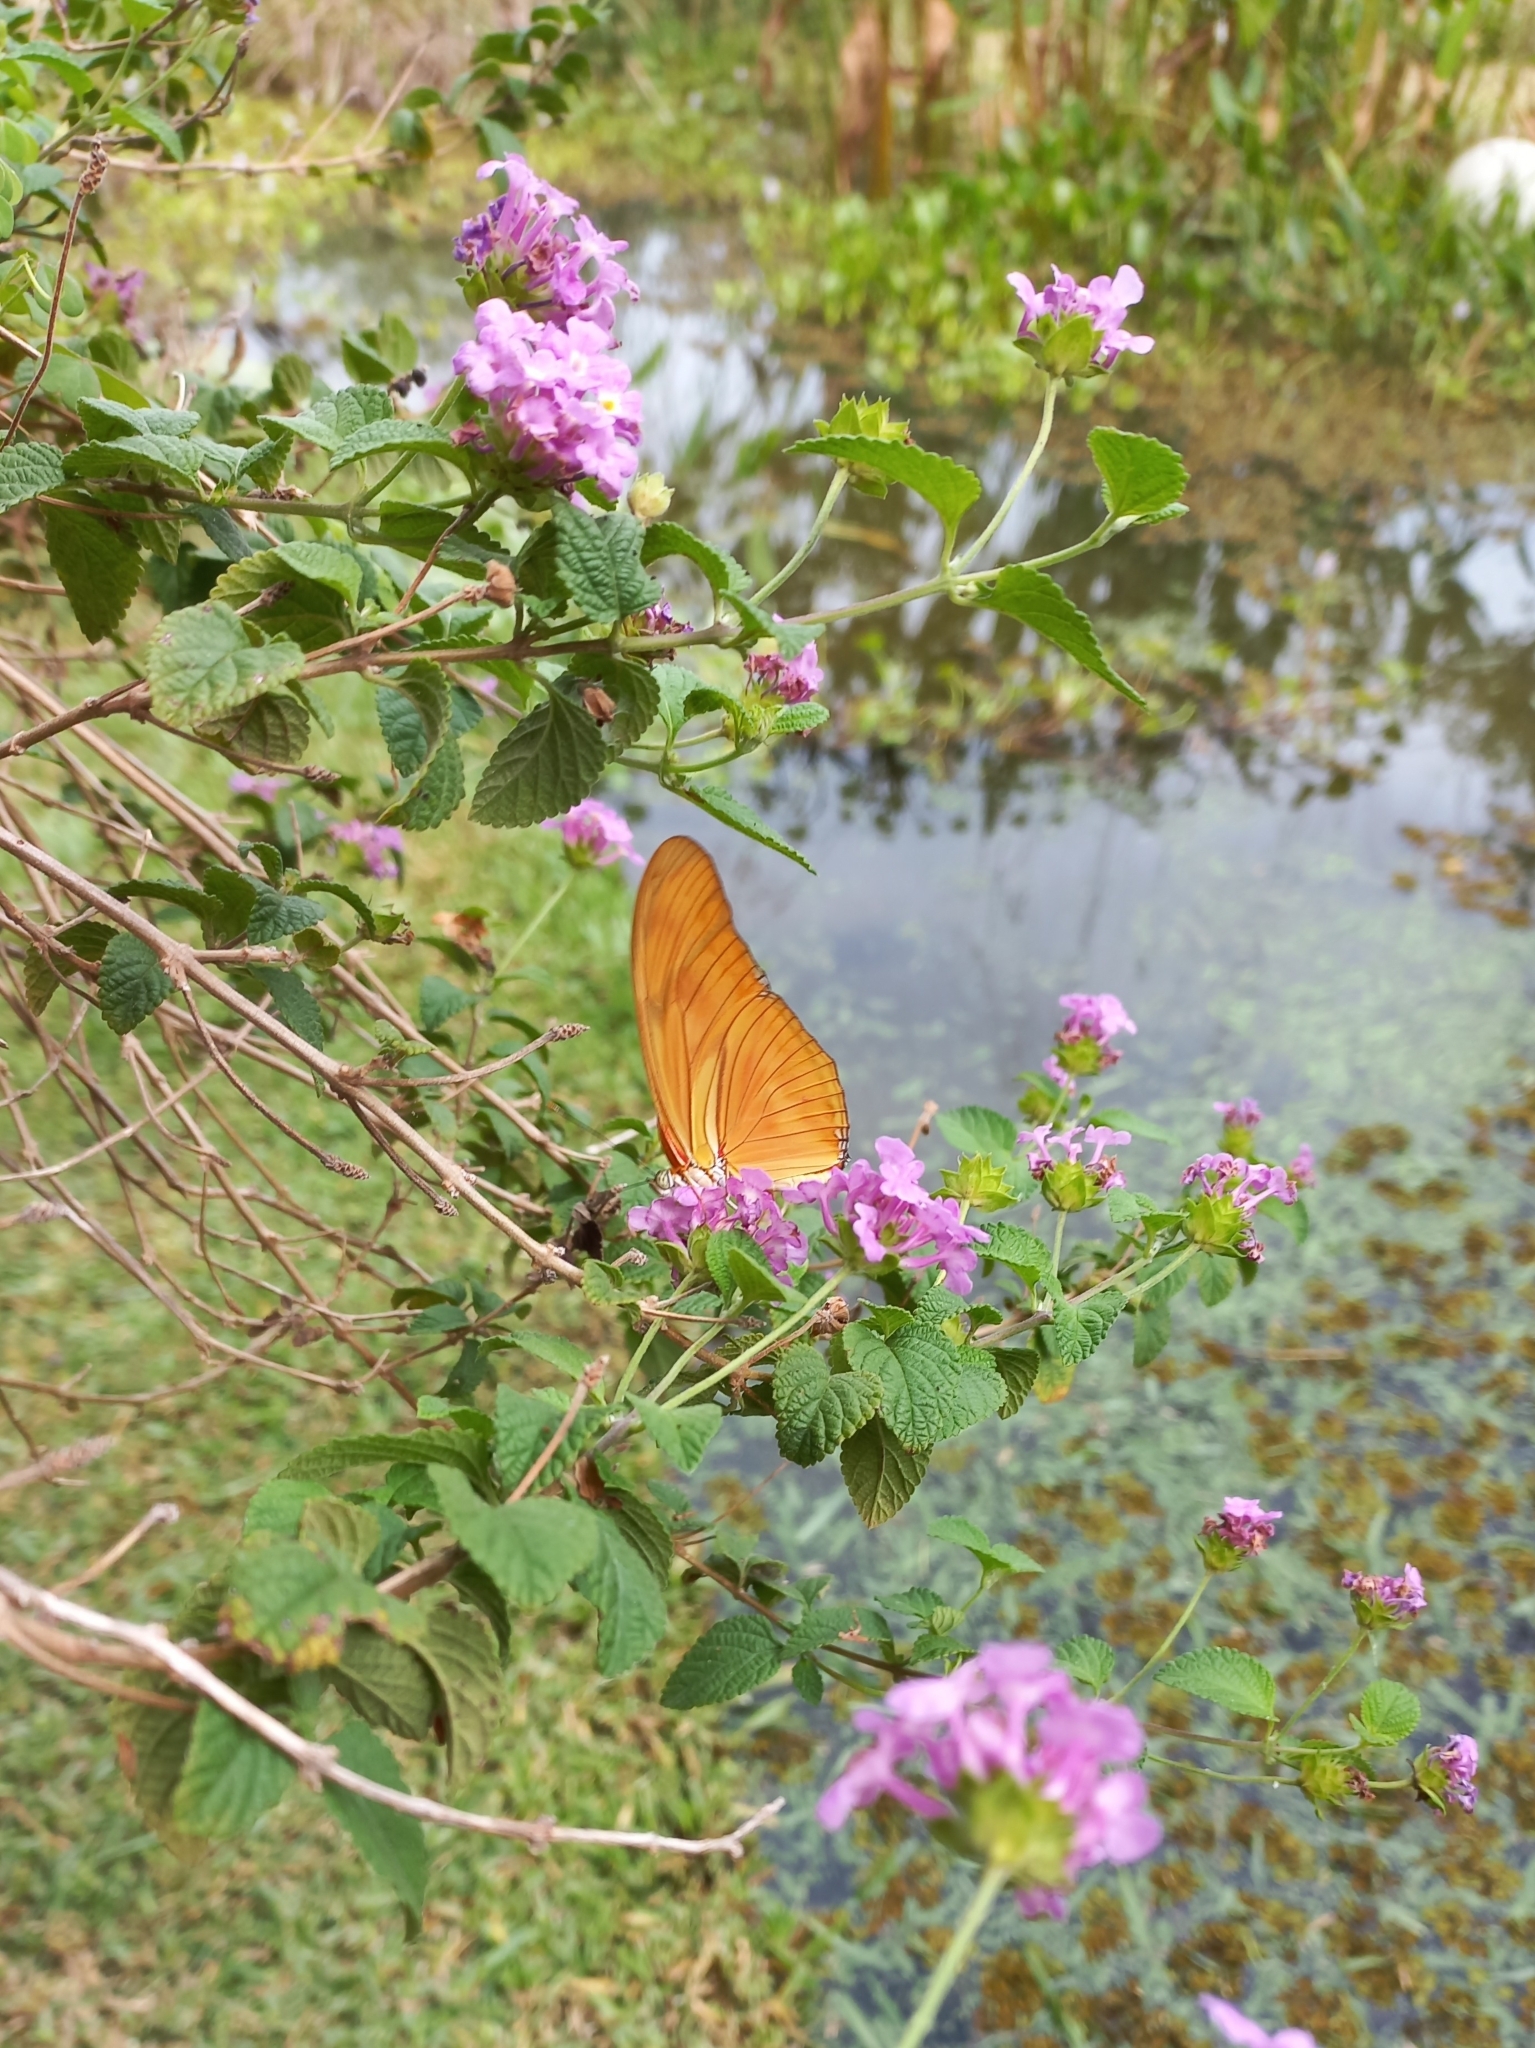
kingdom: Animalia
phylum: Arthropoda
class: Insecta
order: Lepidoptera
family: Nymphalidae
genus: Dryas
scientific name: Dryas iulia
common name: Flambeau
